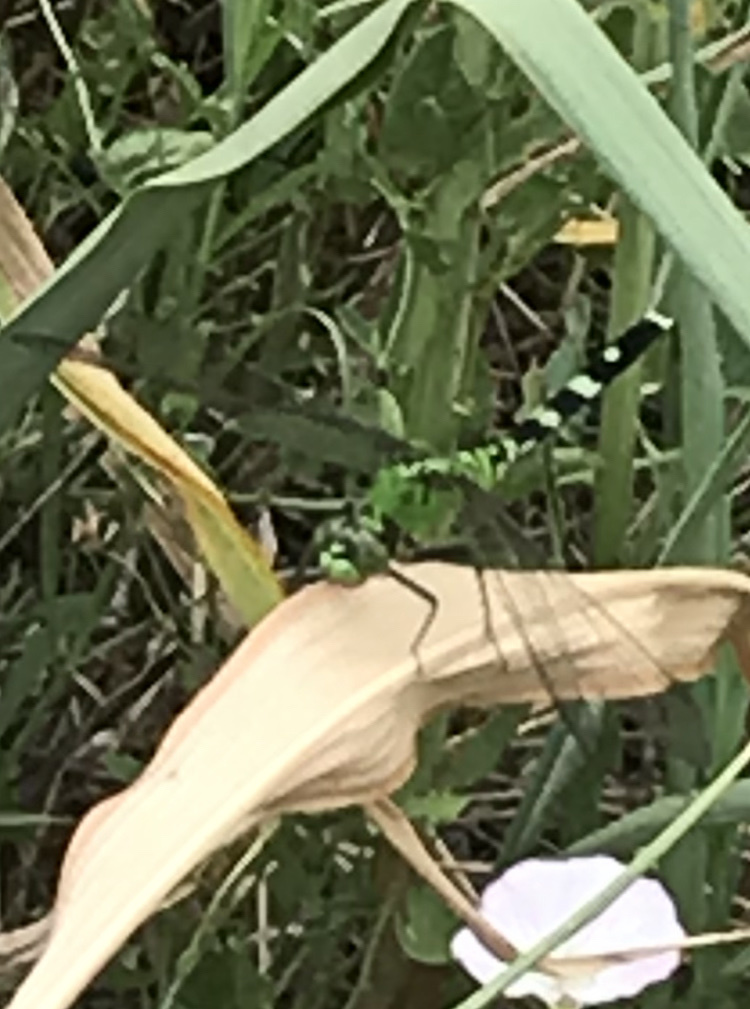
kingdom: Animalia
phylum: Arthropoda
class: Insecta
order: Odonata
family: Libellulidae
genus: Erythemis
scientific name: Erythemis simplicicollis
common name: Eastern pondhawk
